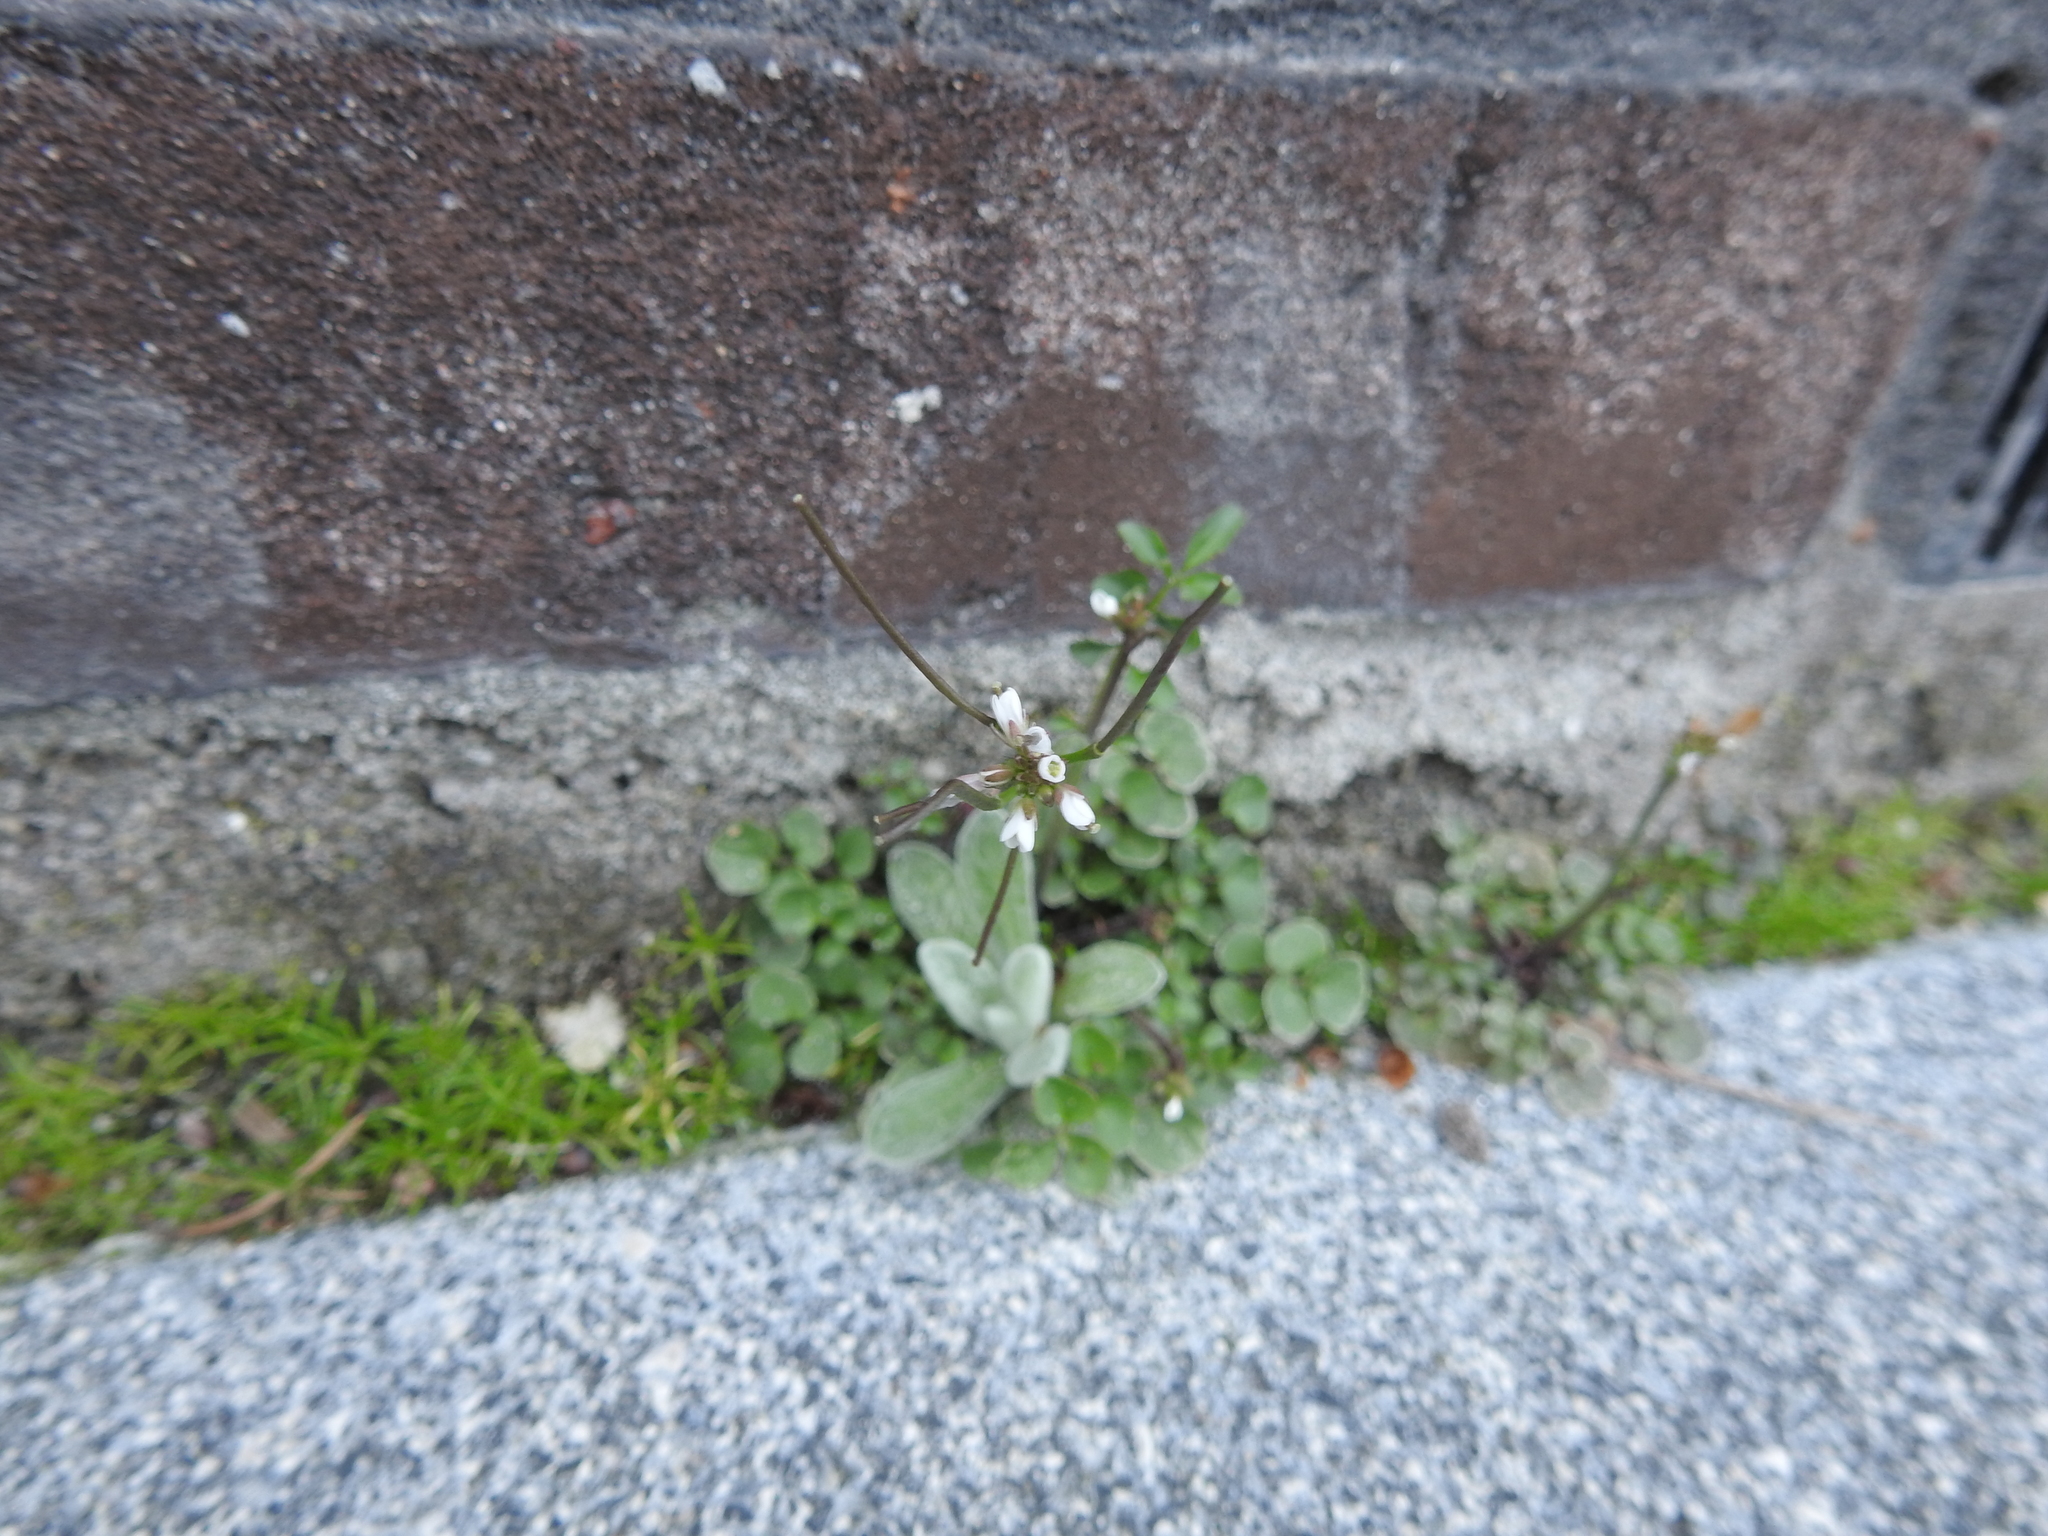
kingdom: Plantae
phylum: Tracheophyta
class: Magnoliopsida
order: Brassicales
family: Brassicaceae
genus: Cardamine
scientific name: Cardamine hirsuta
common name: Hairy bittercress
